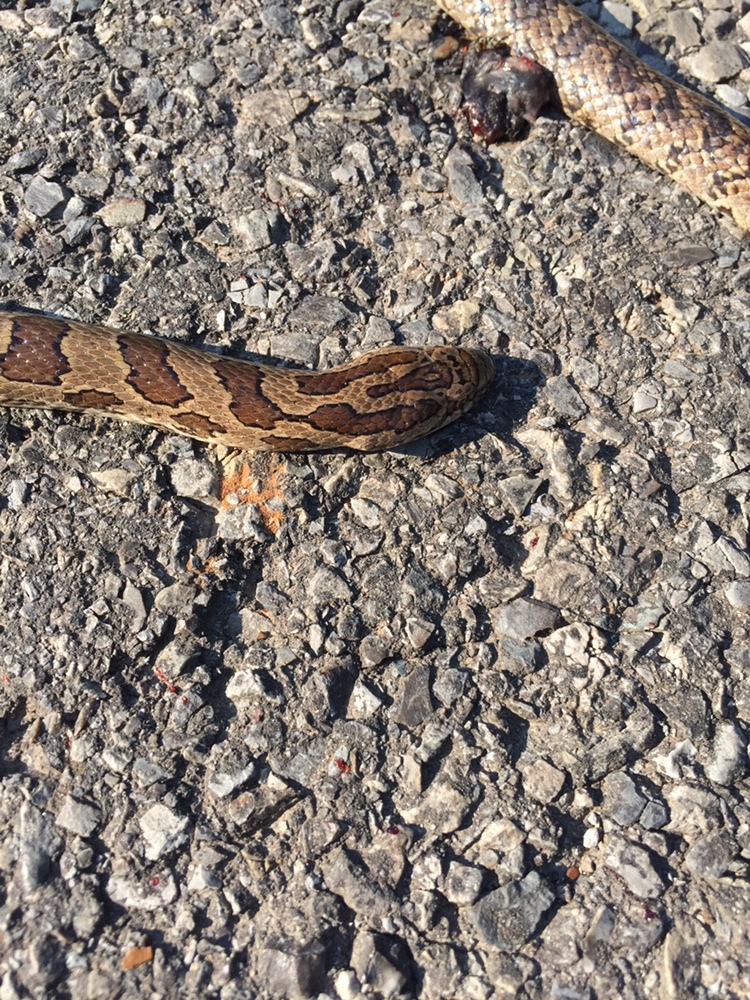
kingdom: Animalia
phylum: Chordata
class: Squamata
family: Colubridae
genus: Lampropeltis
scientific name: Lampropeltis calligaster
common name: Prairie kingsnake
